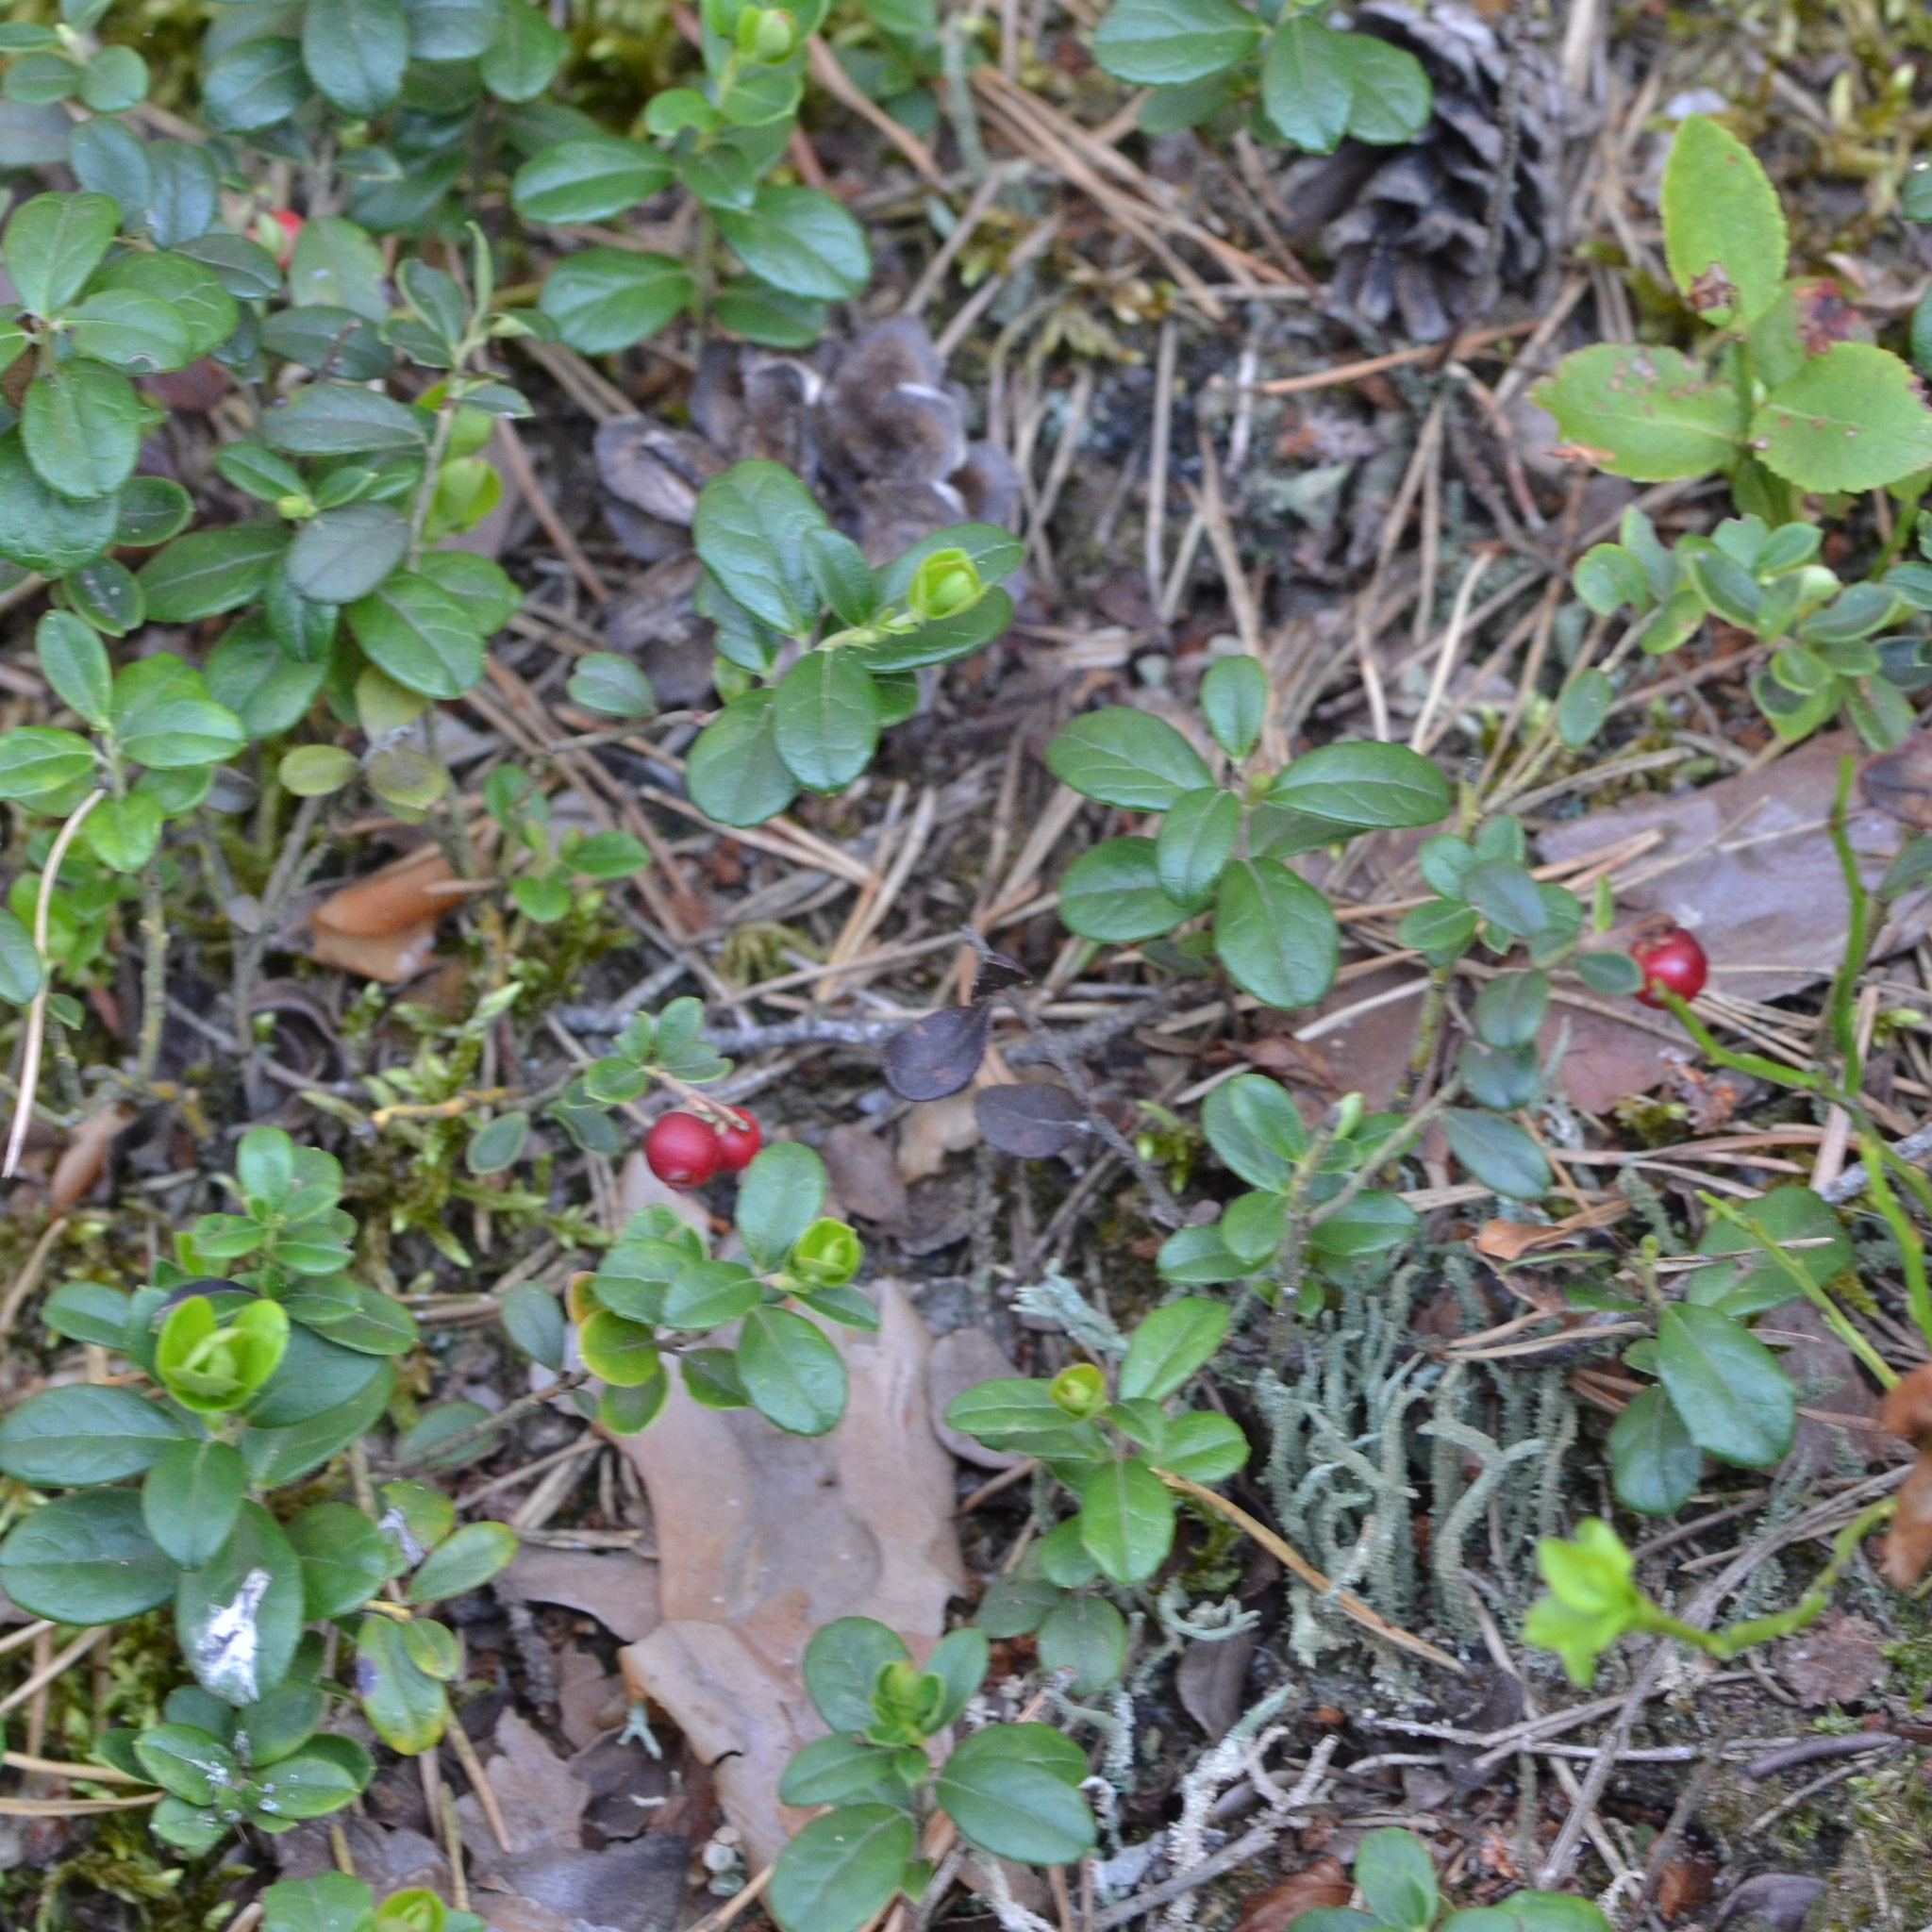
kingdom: Plantae
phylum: Tracheophyta
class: Magnoliopsida
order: Ericales
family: Ericaceae
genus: Vaccinium
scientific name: Vaccinium vitis-idaea
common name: Cowberry
